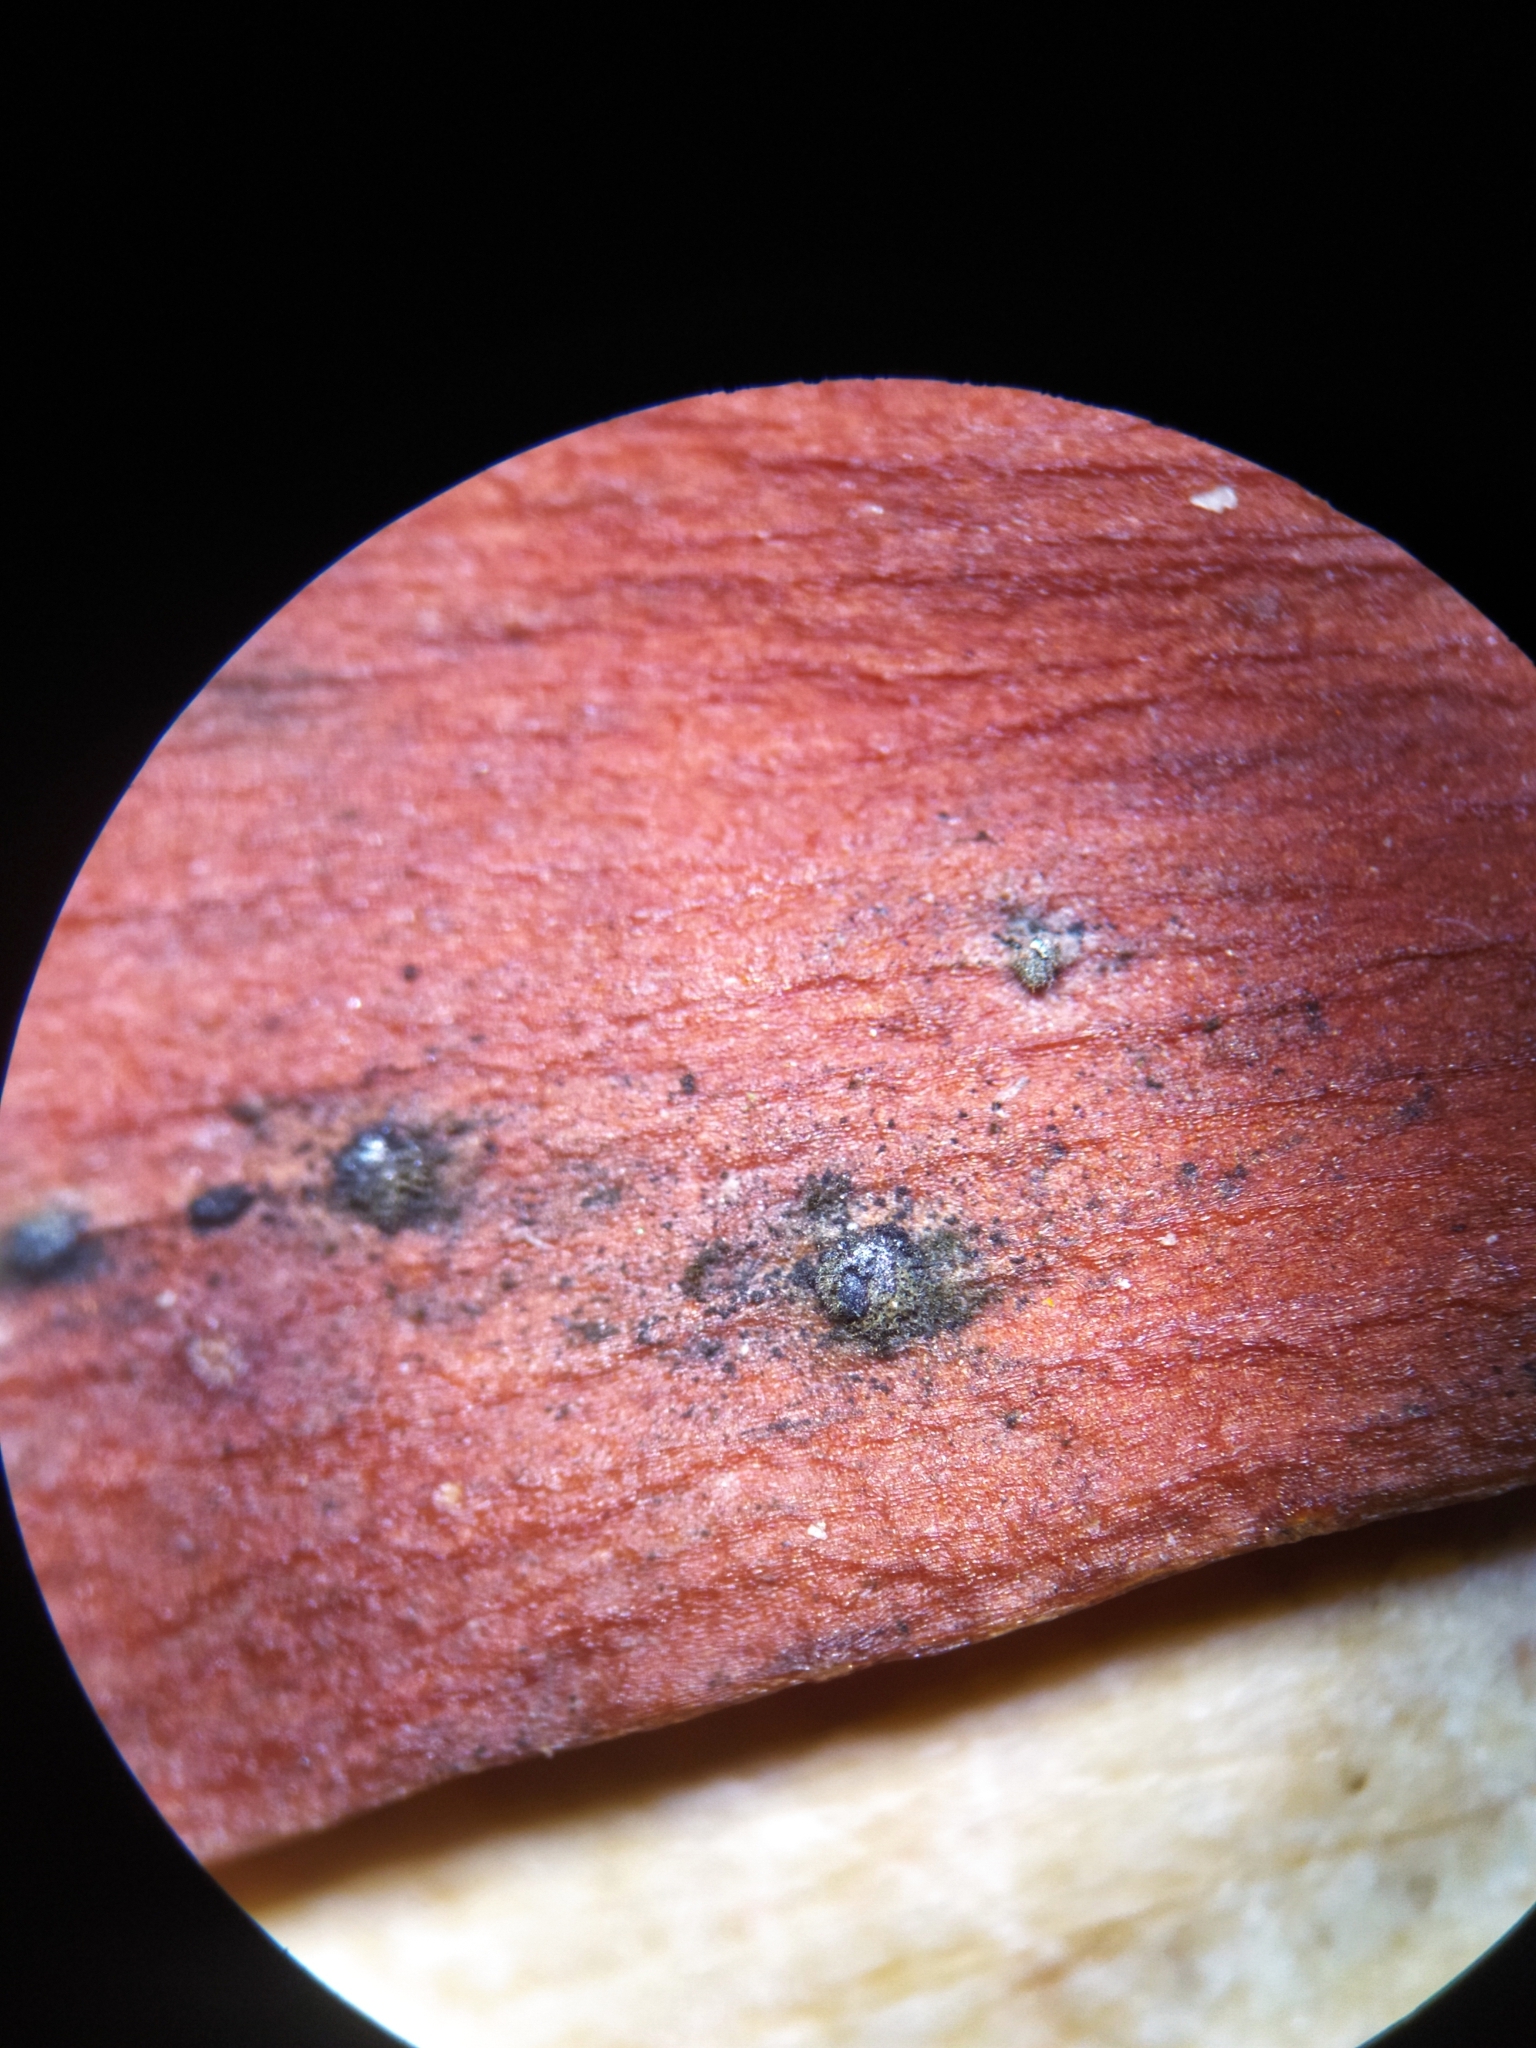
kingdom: Fungi
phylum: Basidiomycota
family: Bartheletiaceae
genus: Bartheletia
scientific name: Bartheletia paradoxa
